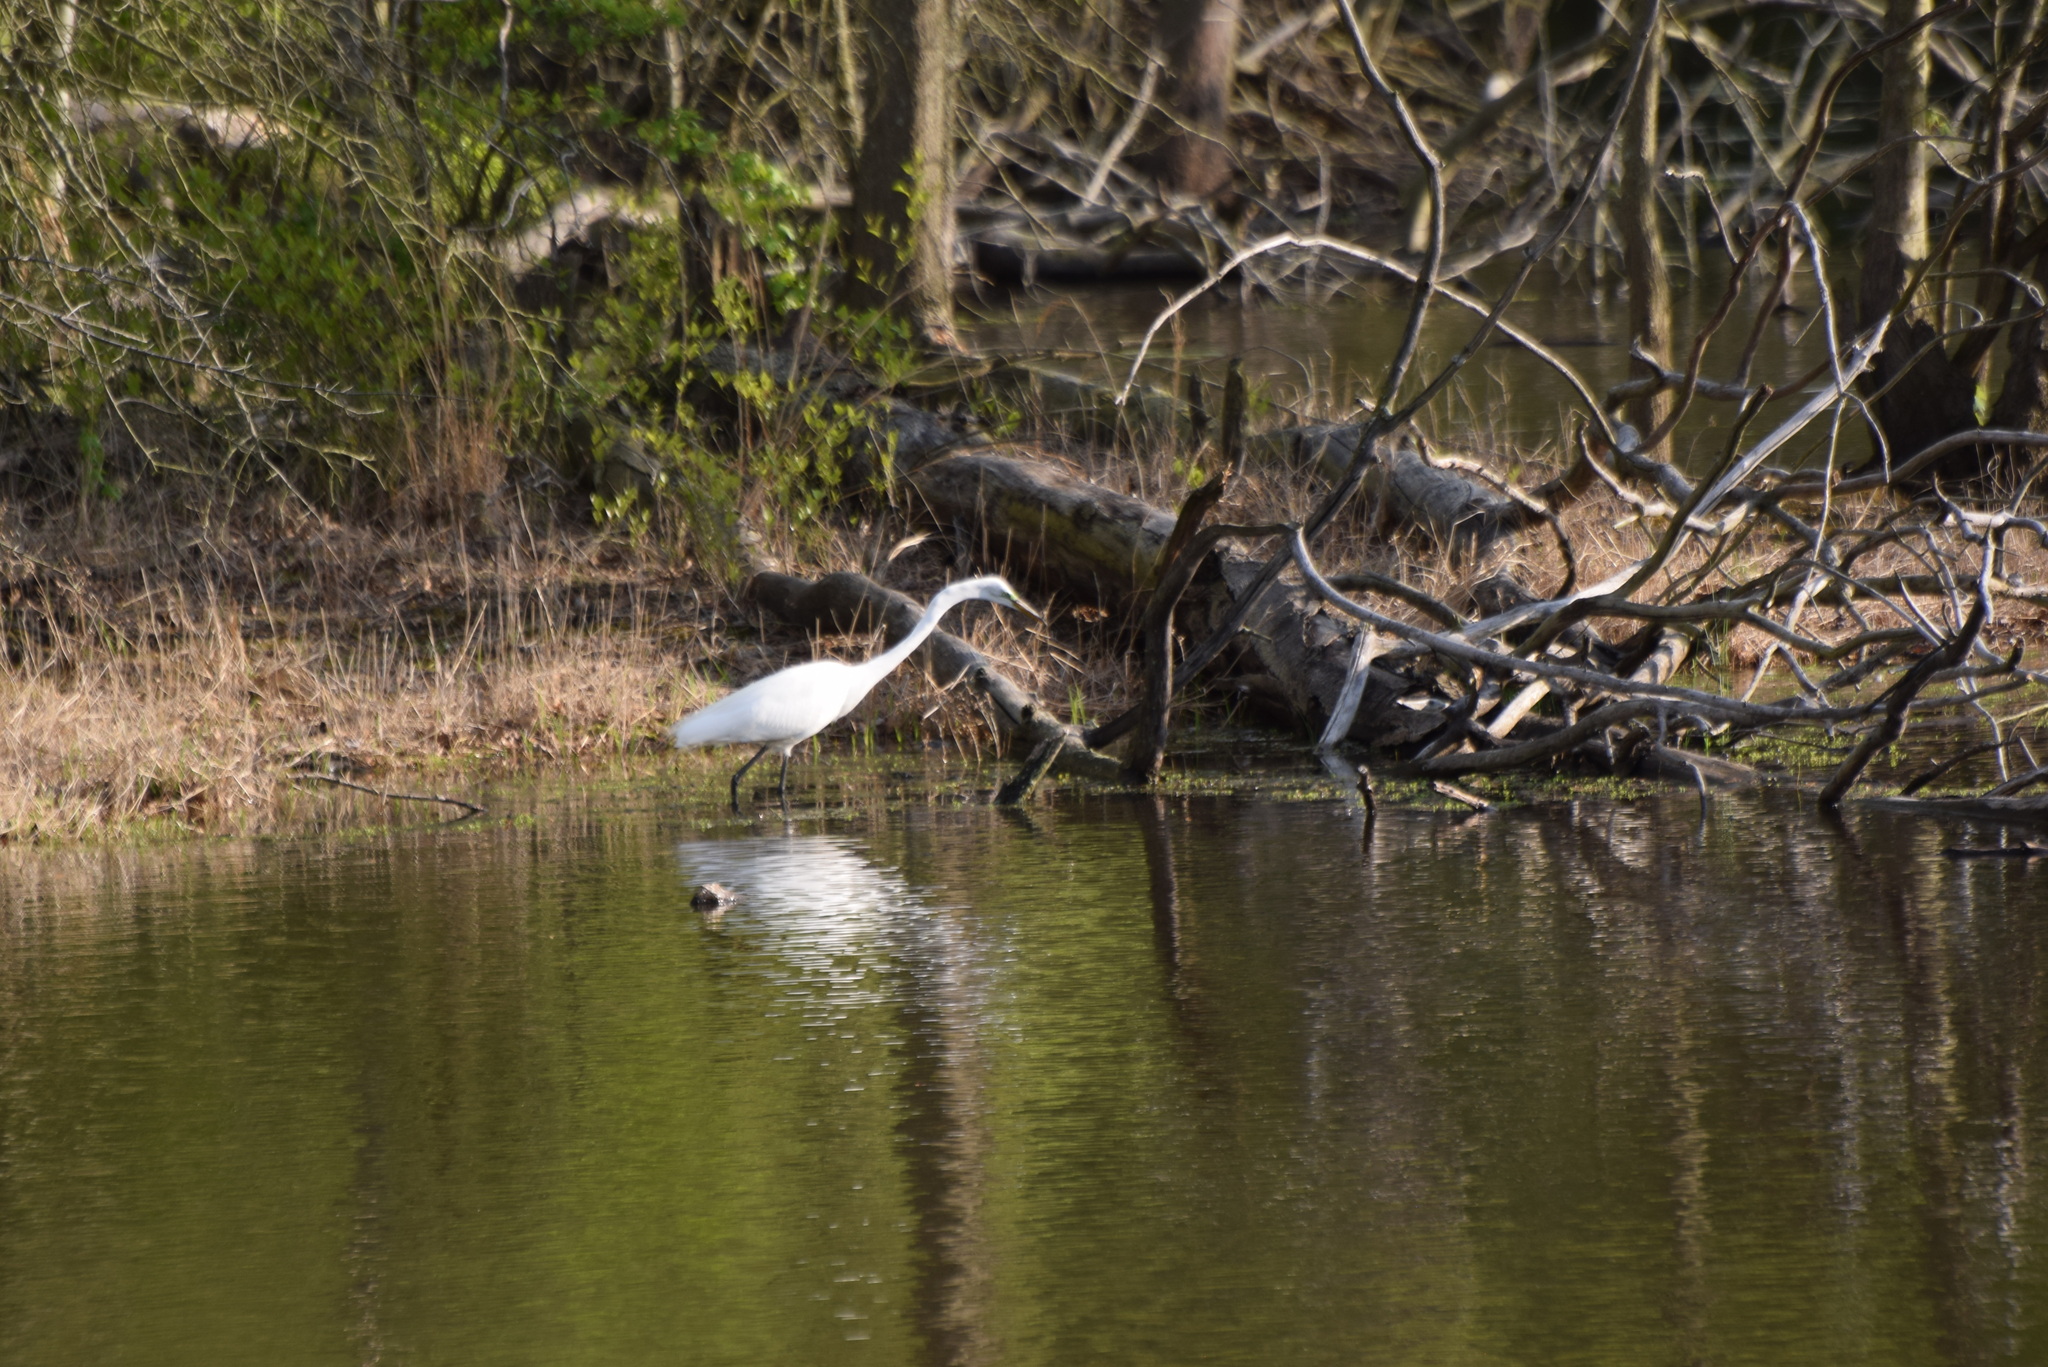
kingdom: Animalia
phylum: Chordata
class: Aves
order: Pelecaniformes
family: Ardeidae
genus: Ardea
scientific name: Ardea alba
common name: Great egret
